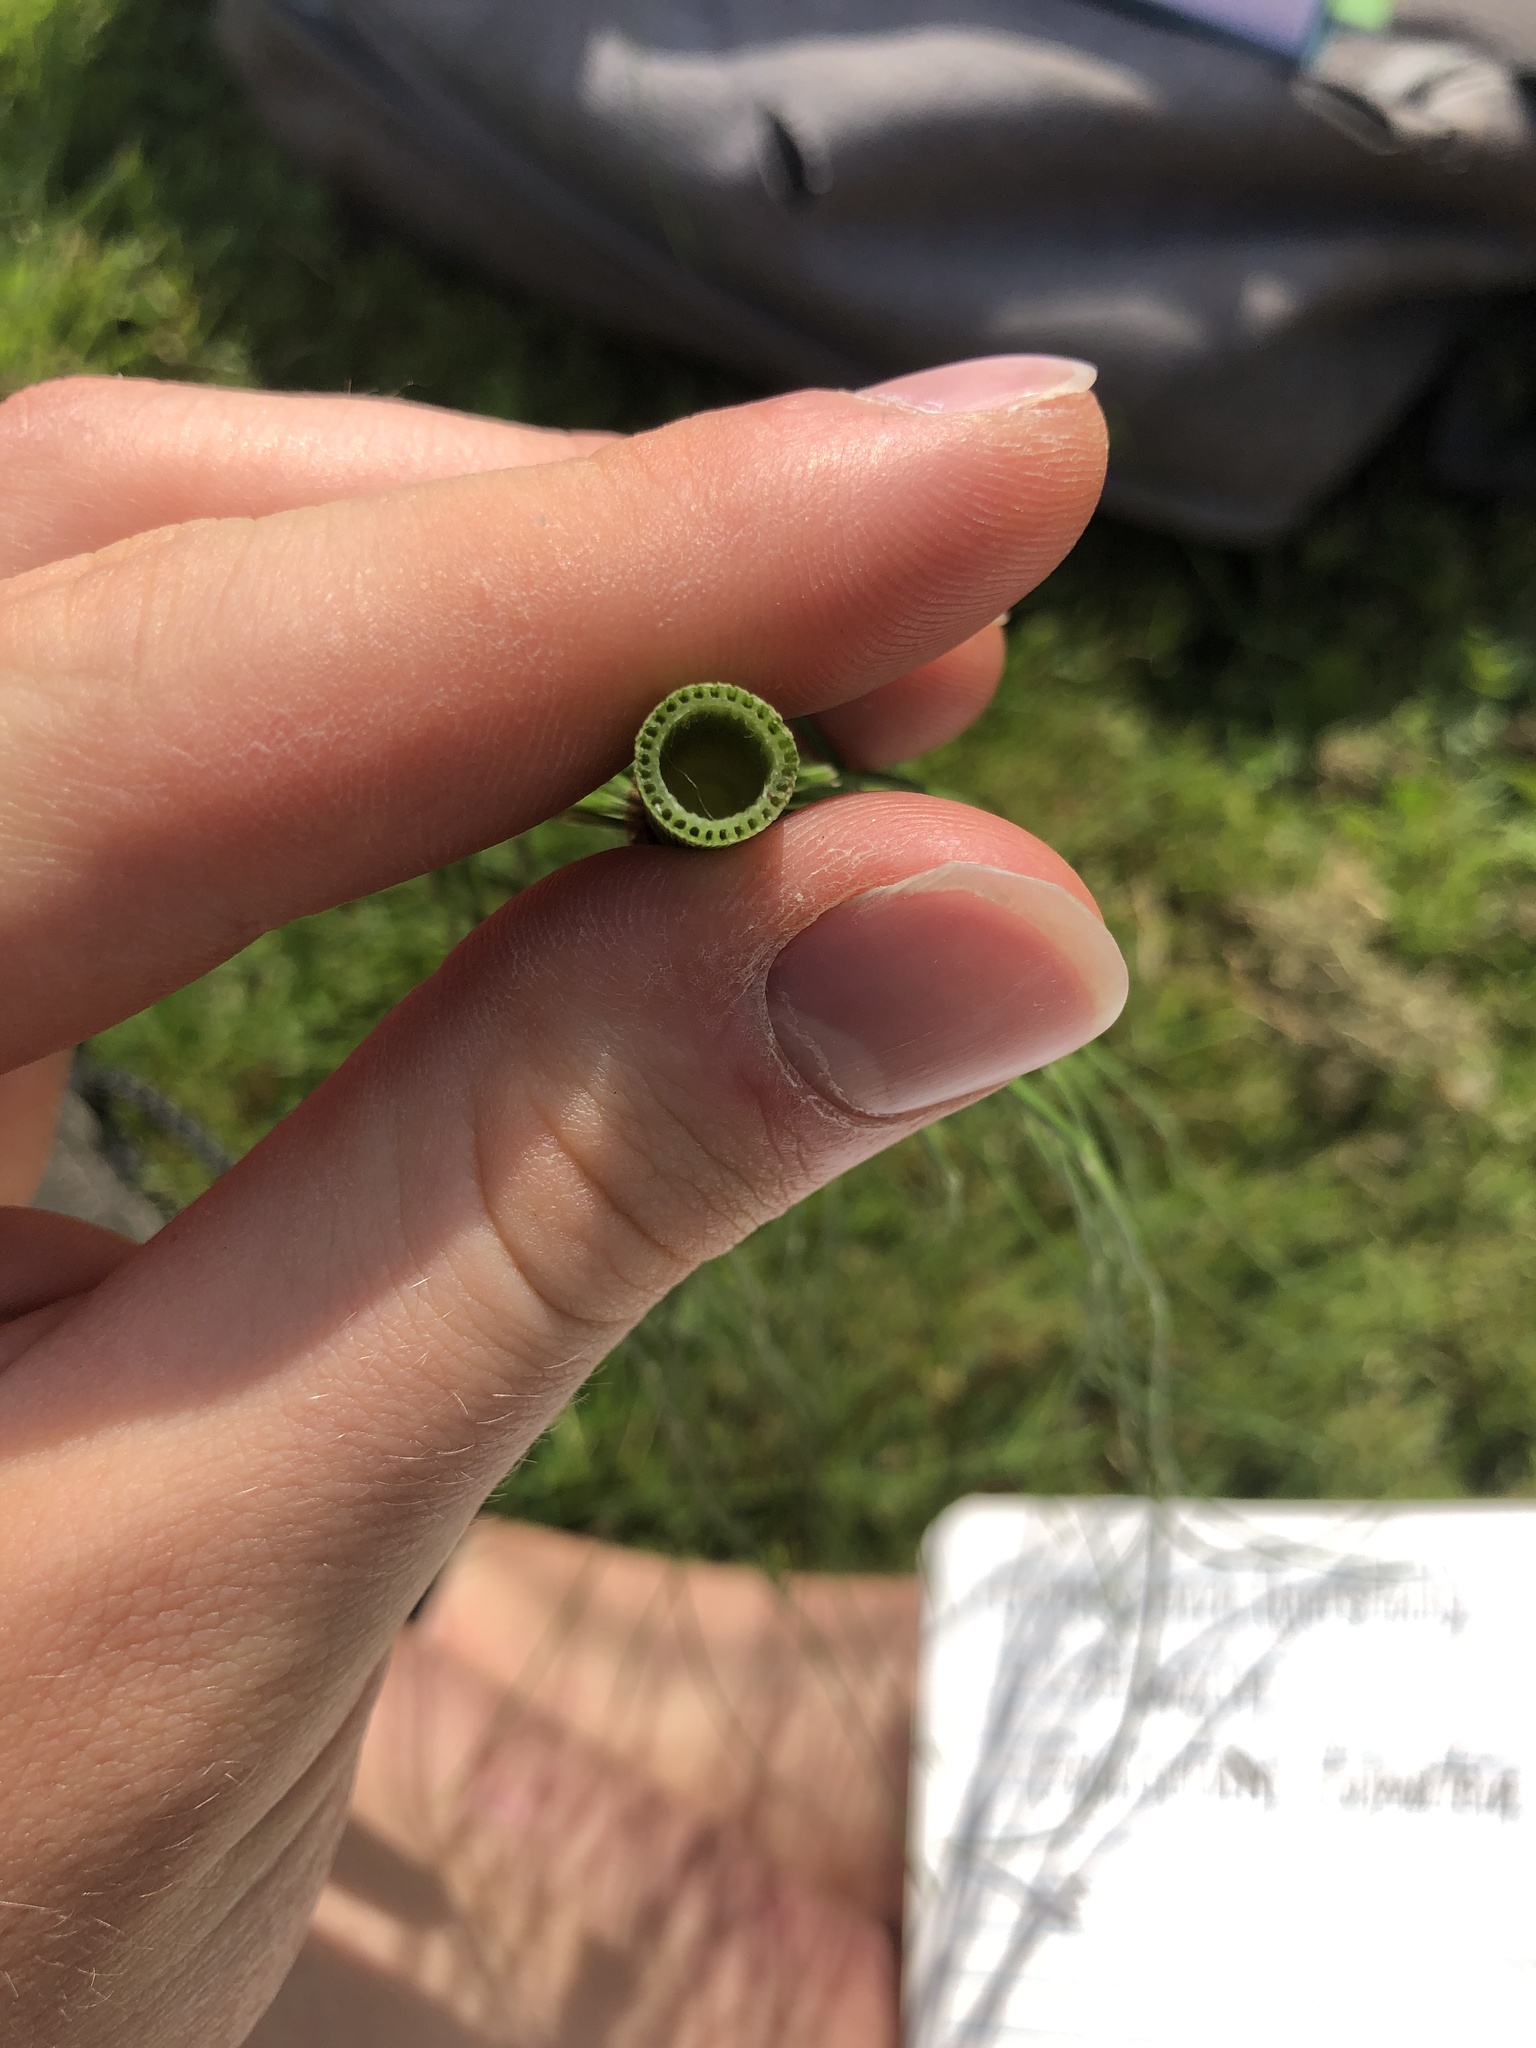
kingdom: Plantae
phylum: Tracheophyta
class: Polypodiopsida
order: Equisetales
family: Equisetaceae
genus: Equisetum
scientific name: Equisetum telmateia
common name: Great horsetail
